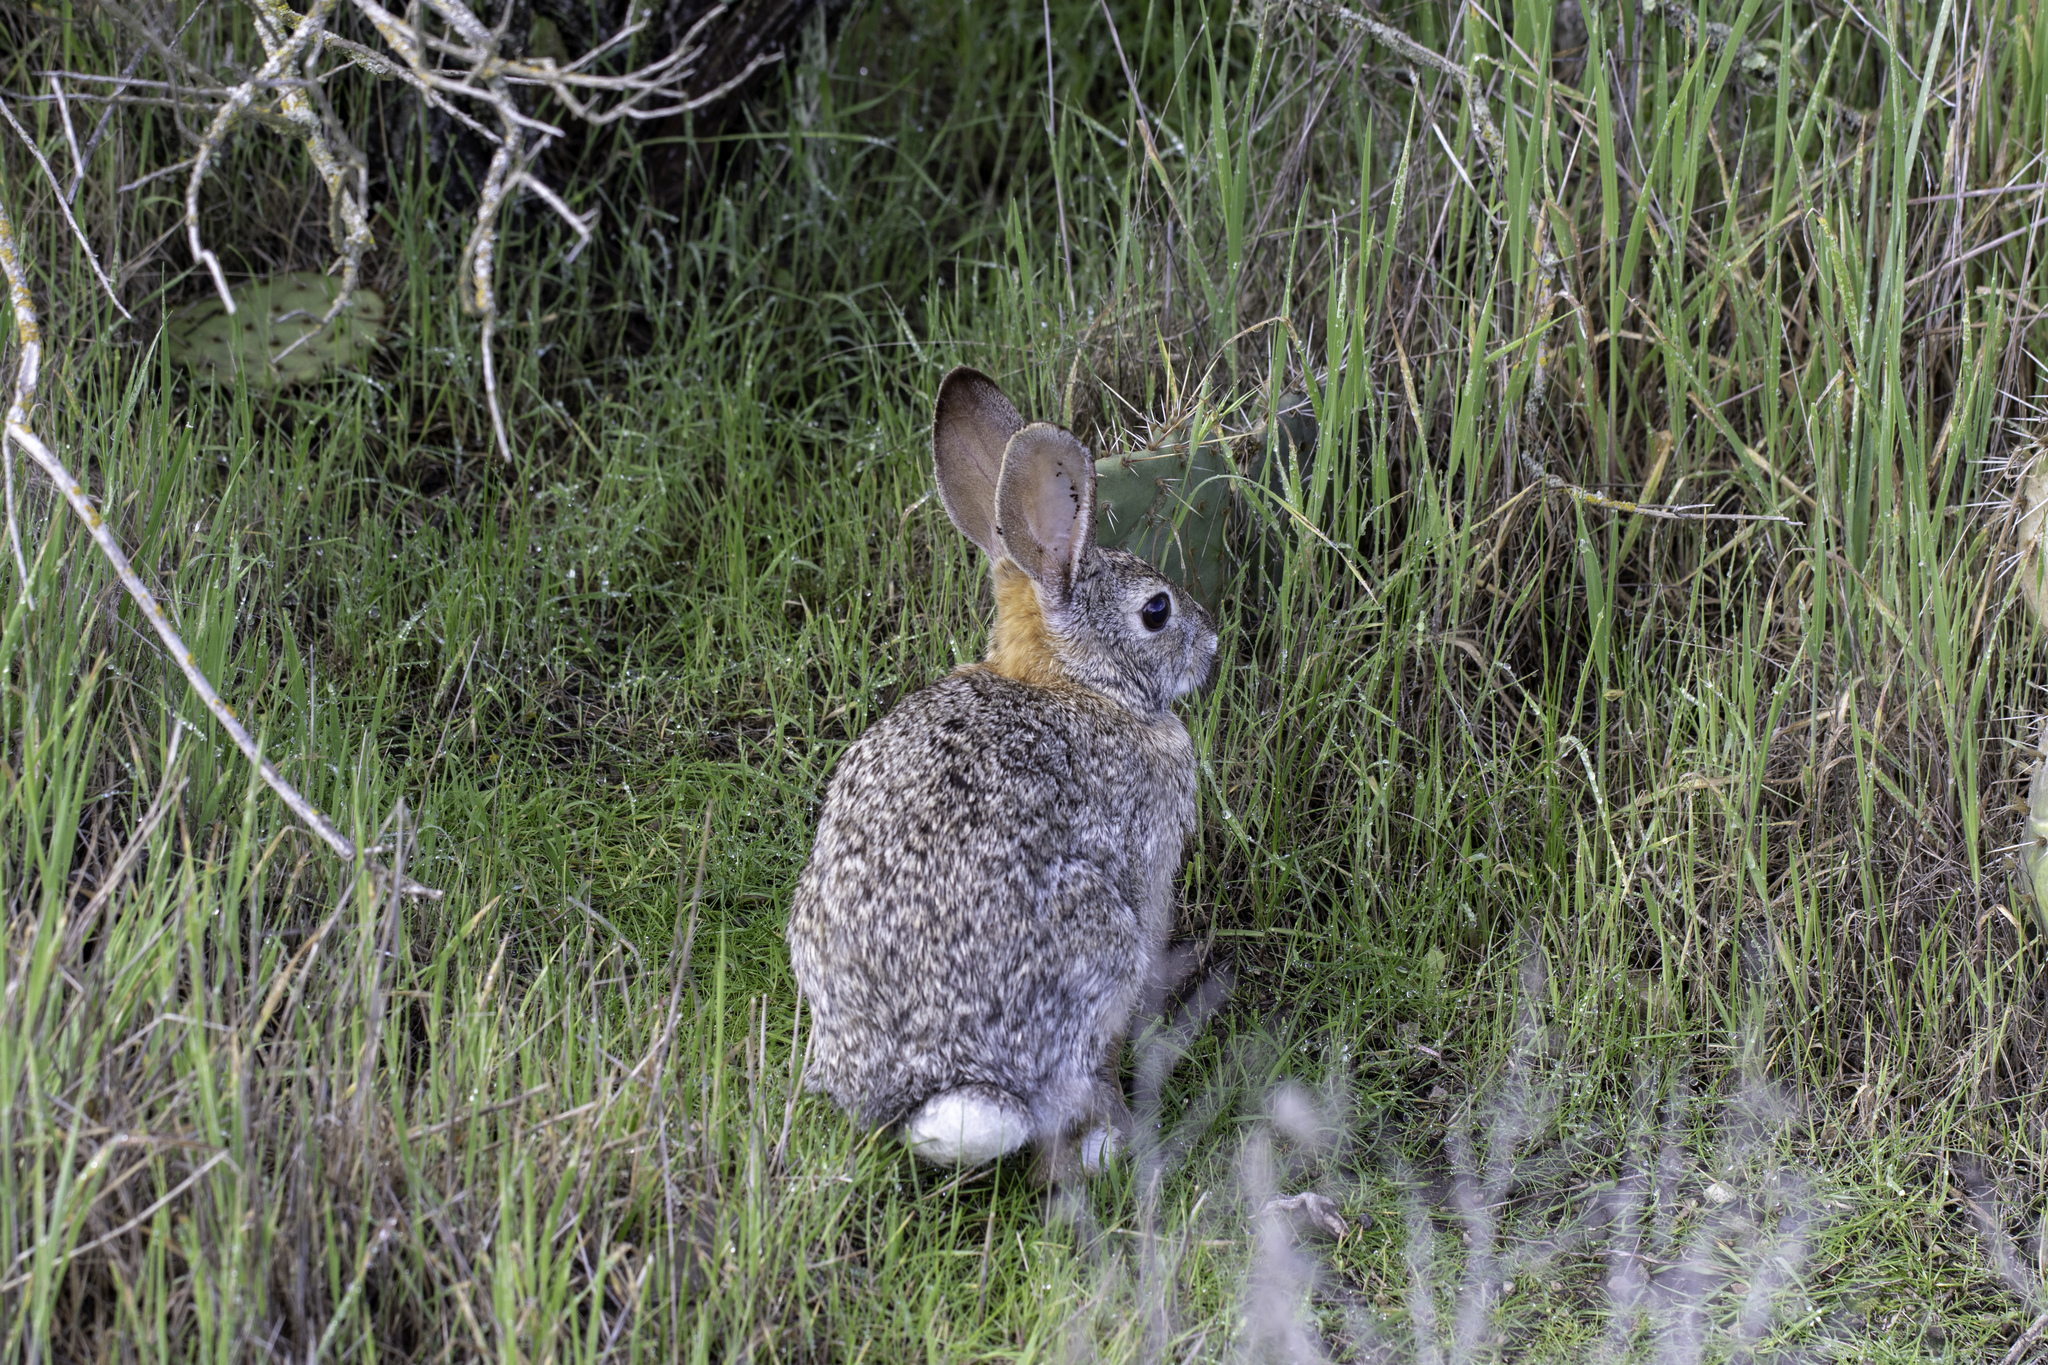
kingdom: Animalia
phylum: Chordata
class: Mammalia
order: Lagomorpha
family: Leporidae
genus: Sylvilagus
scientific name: Sylvilagus audubonii
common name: Desert cottontail
